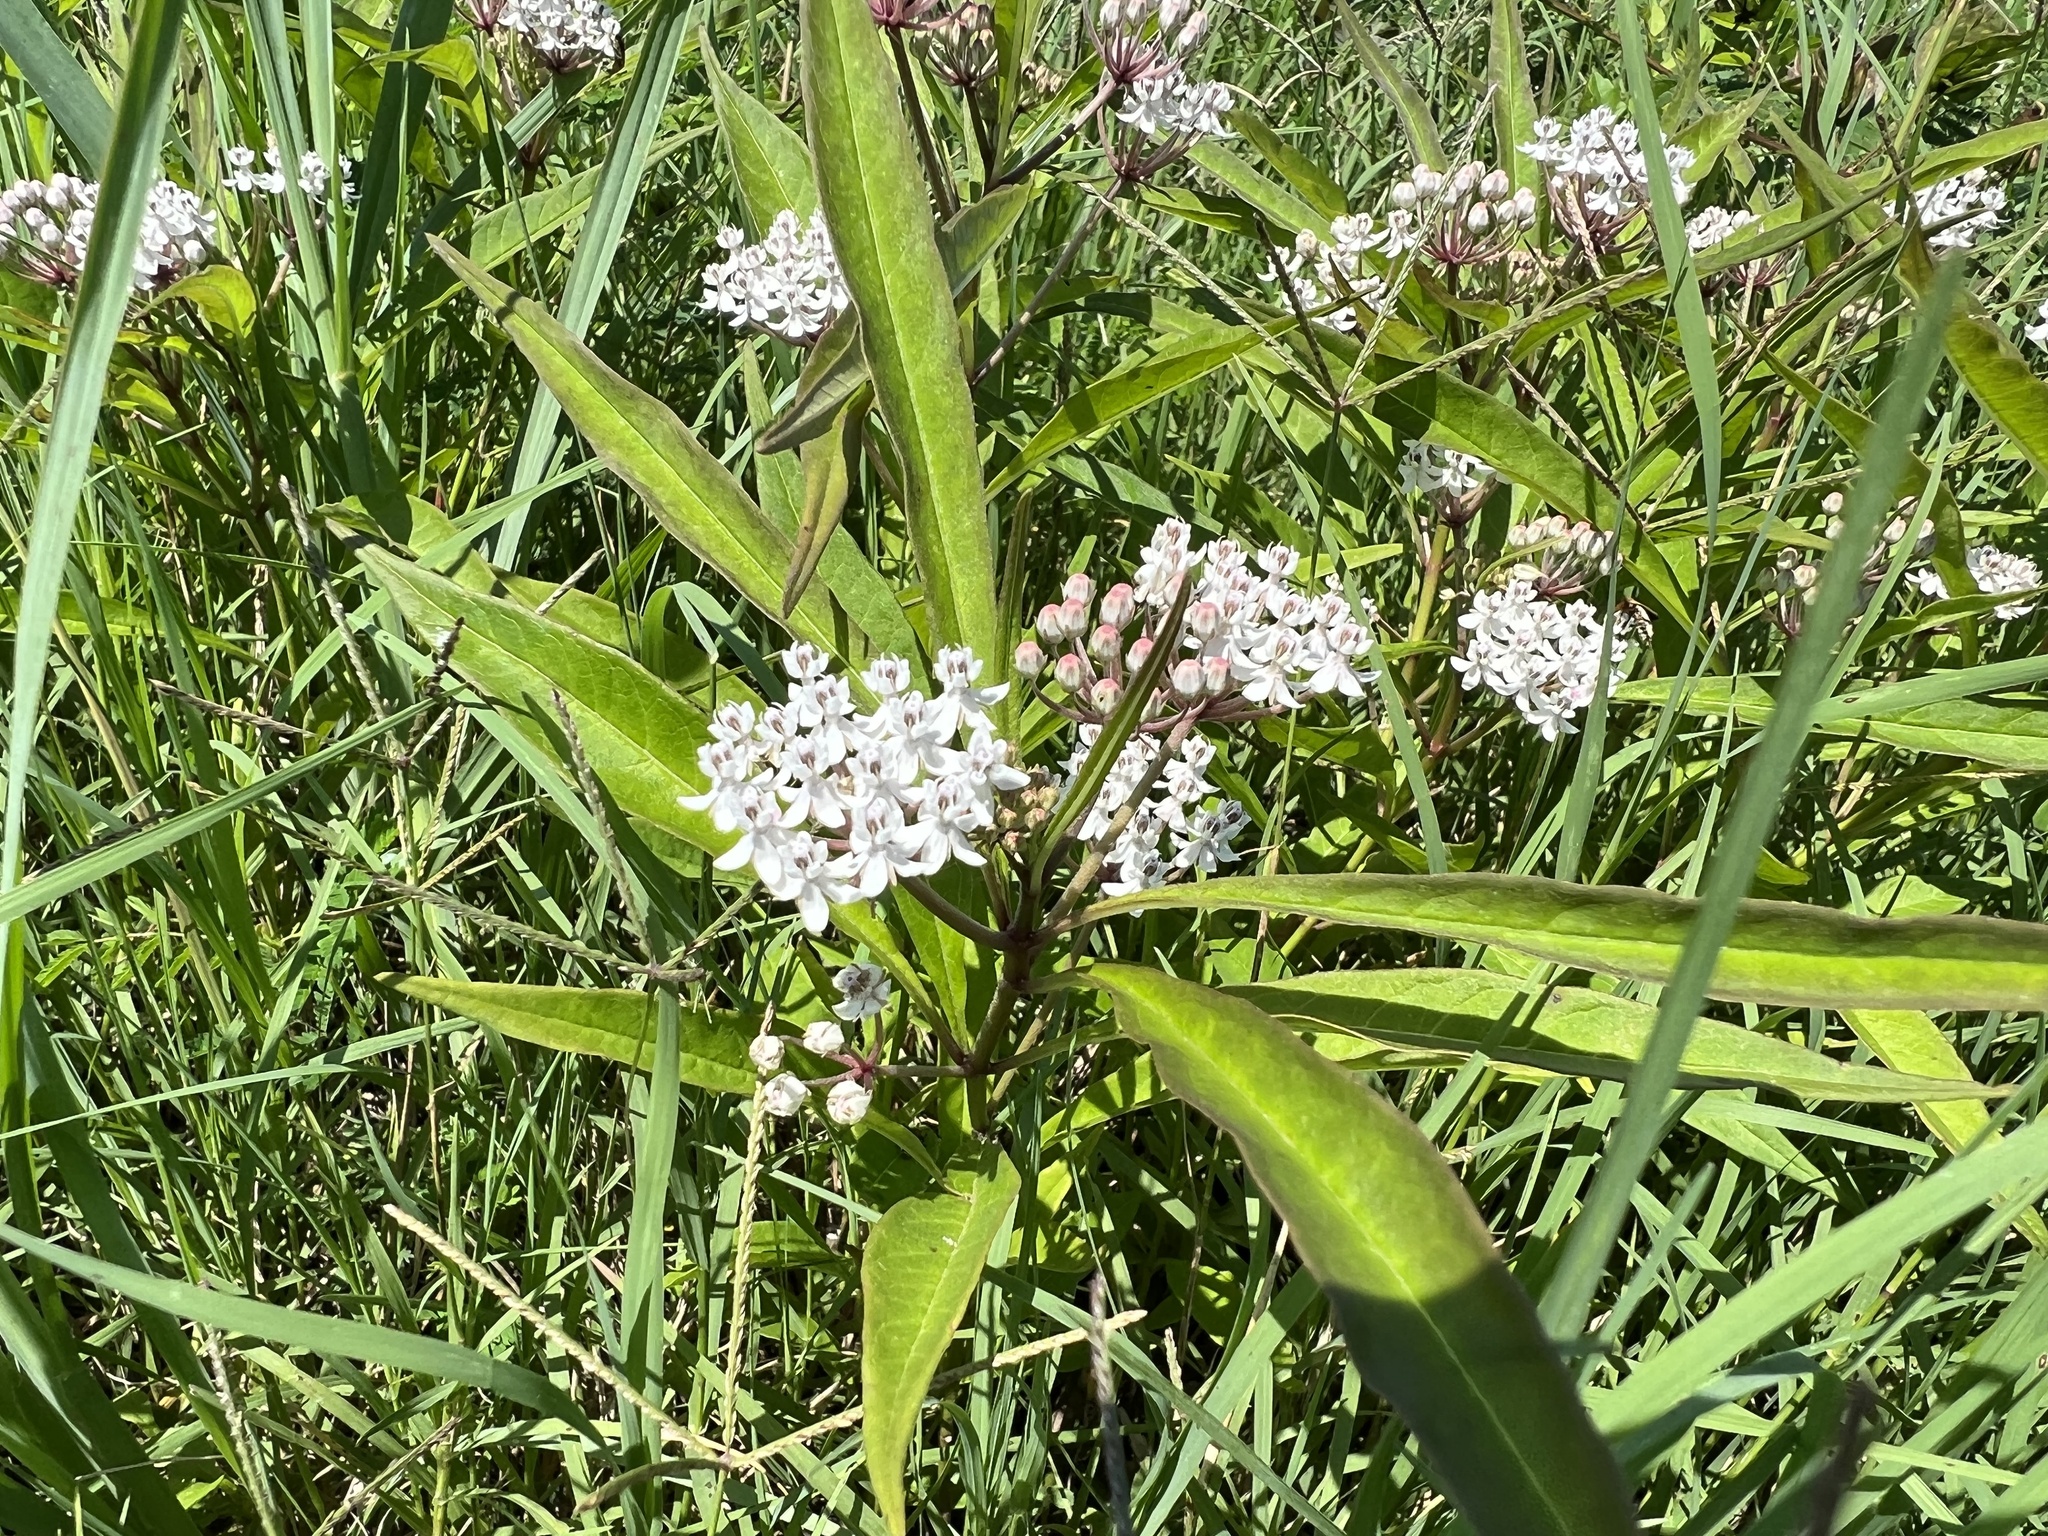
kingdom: Plantae
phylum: Tracheophyta
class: Magnoliopsida
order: Gentianales
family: Apocynaceae
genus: Asclepias
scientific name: Asclepias perennis
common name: Smooth-seed milkweed
